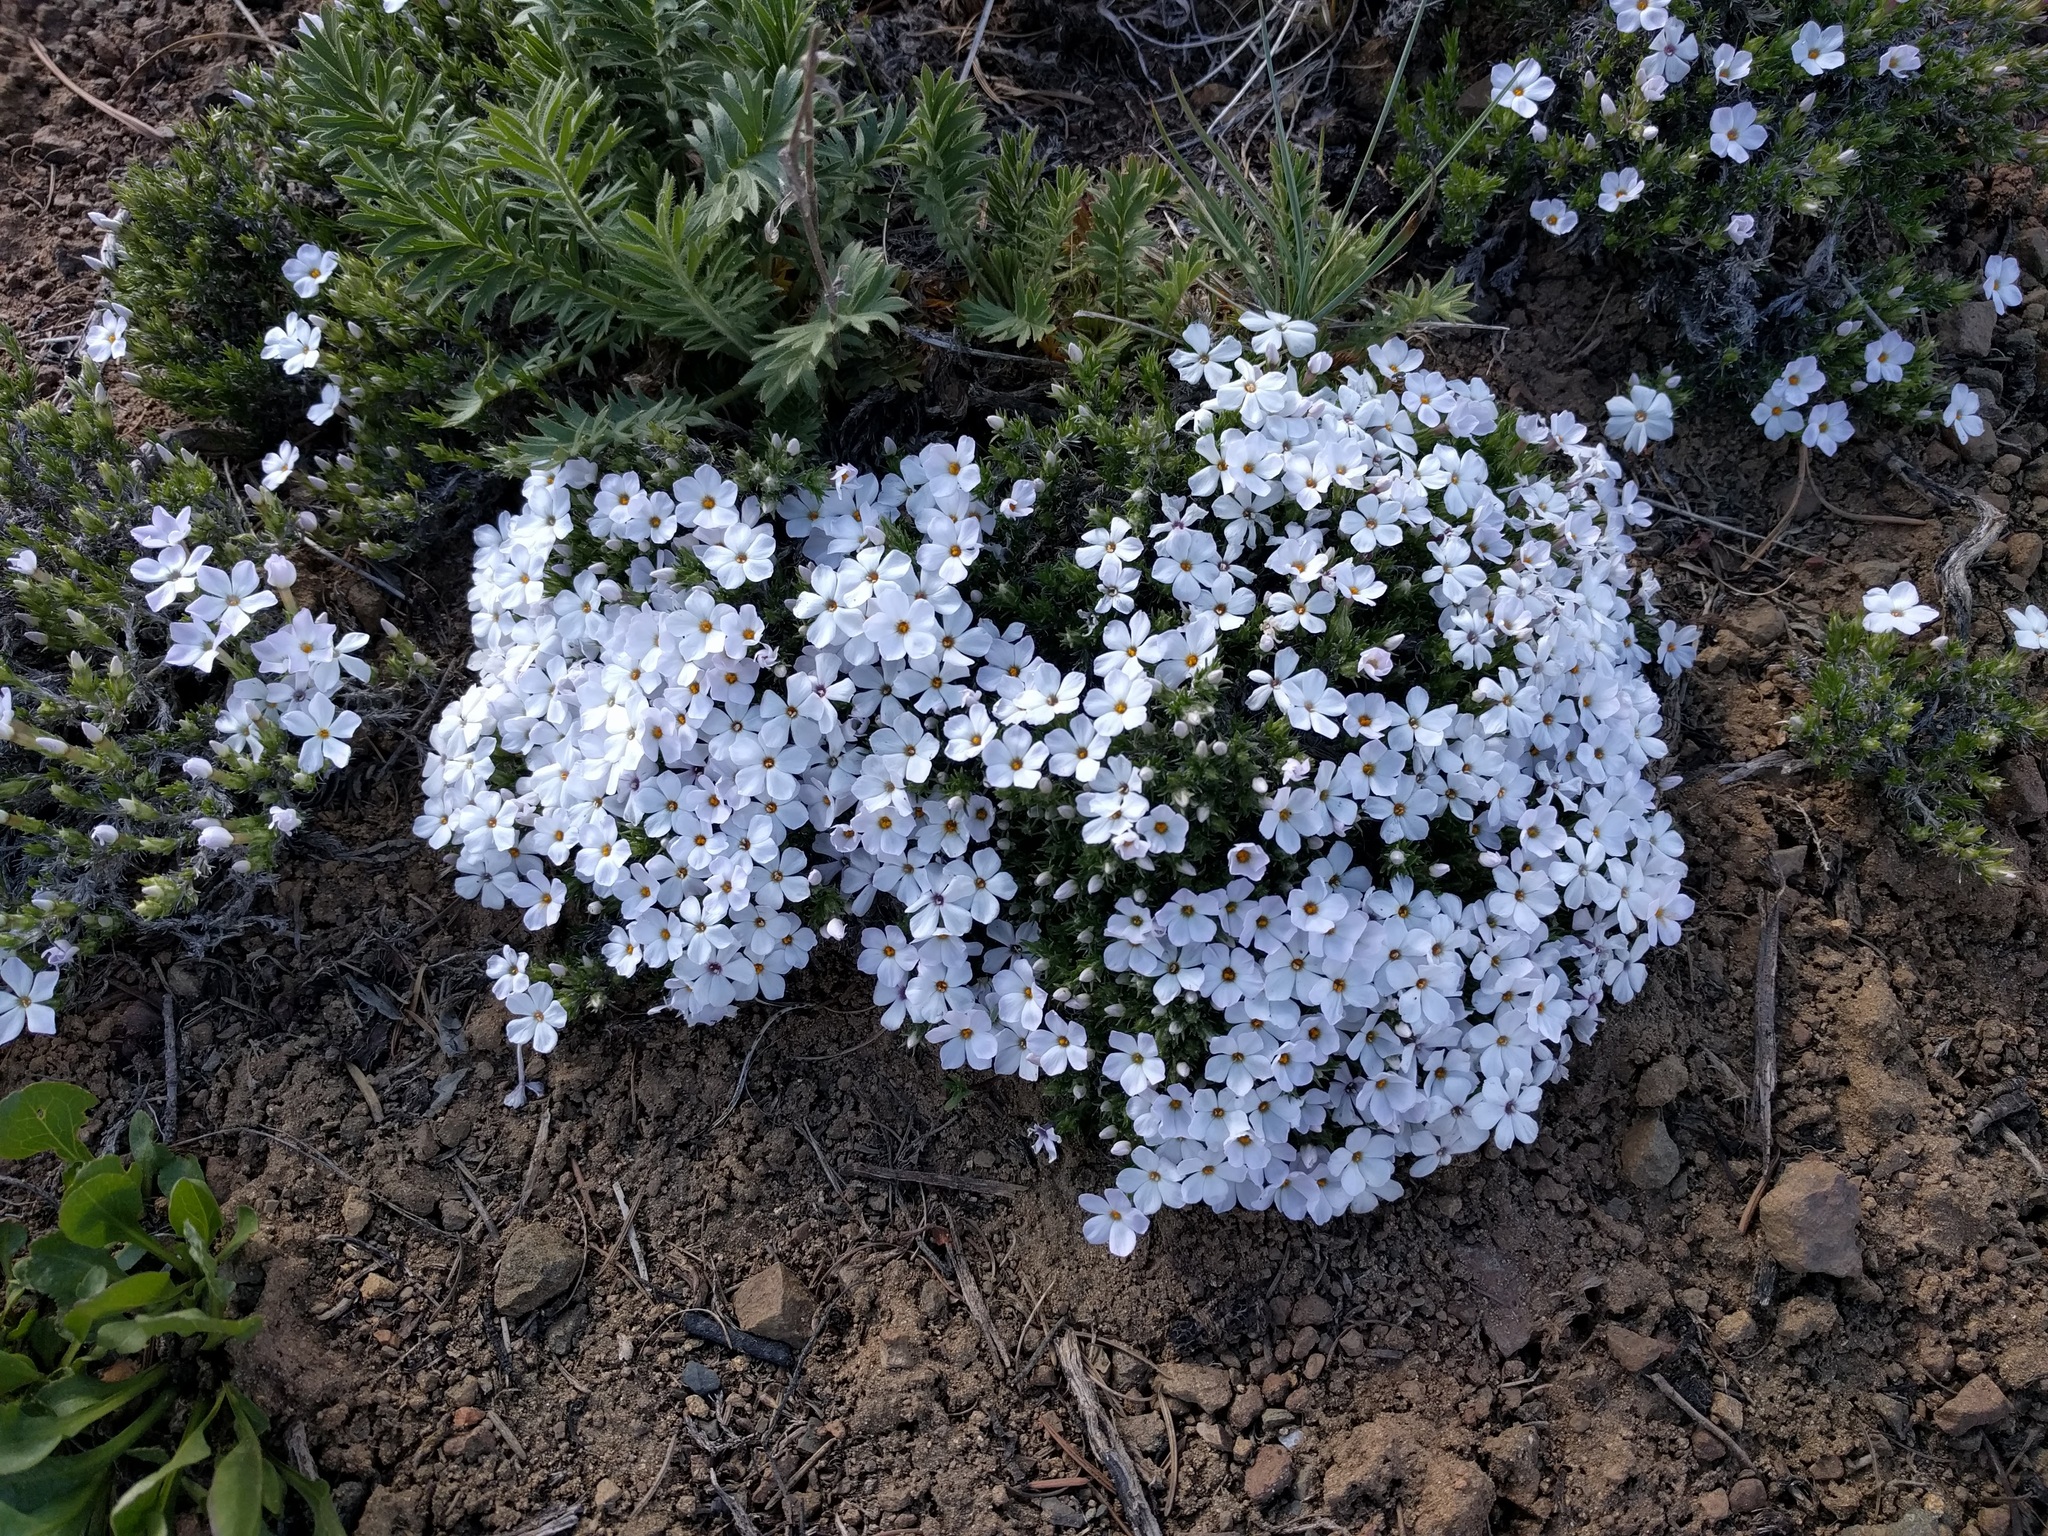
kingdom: Plantae
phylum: Tracheophyta
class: Magnoliopsida
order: Ericales
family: Polemoniaceae
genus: Phlox
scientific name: Phlox diffusa
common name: Mat phlox
